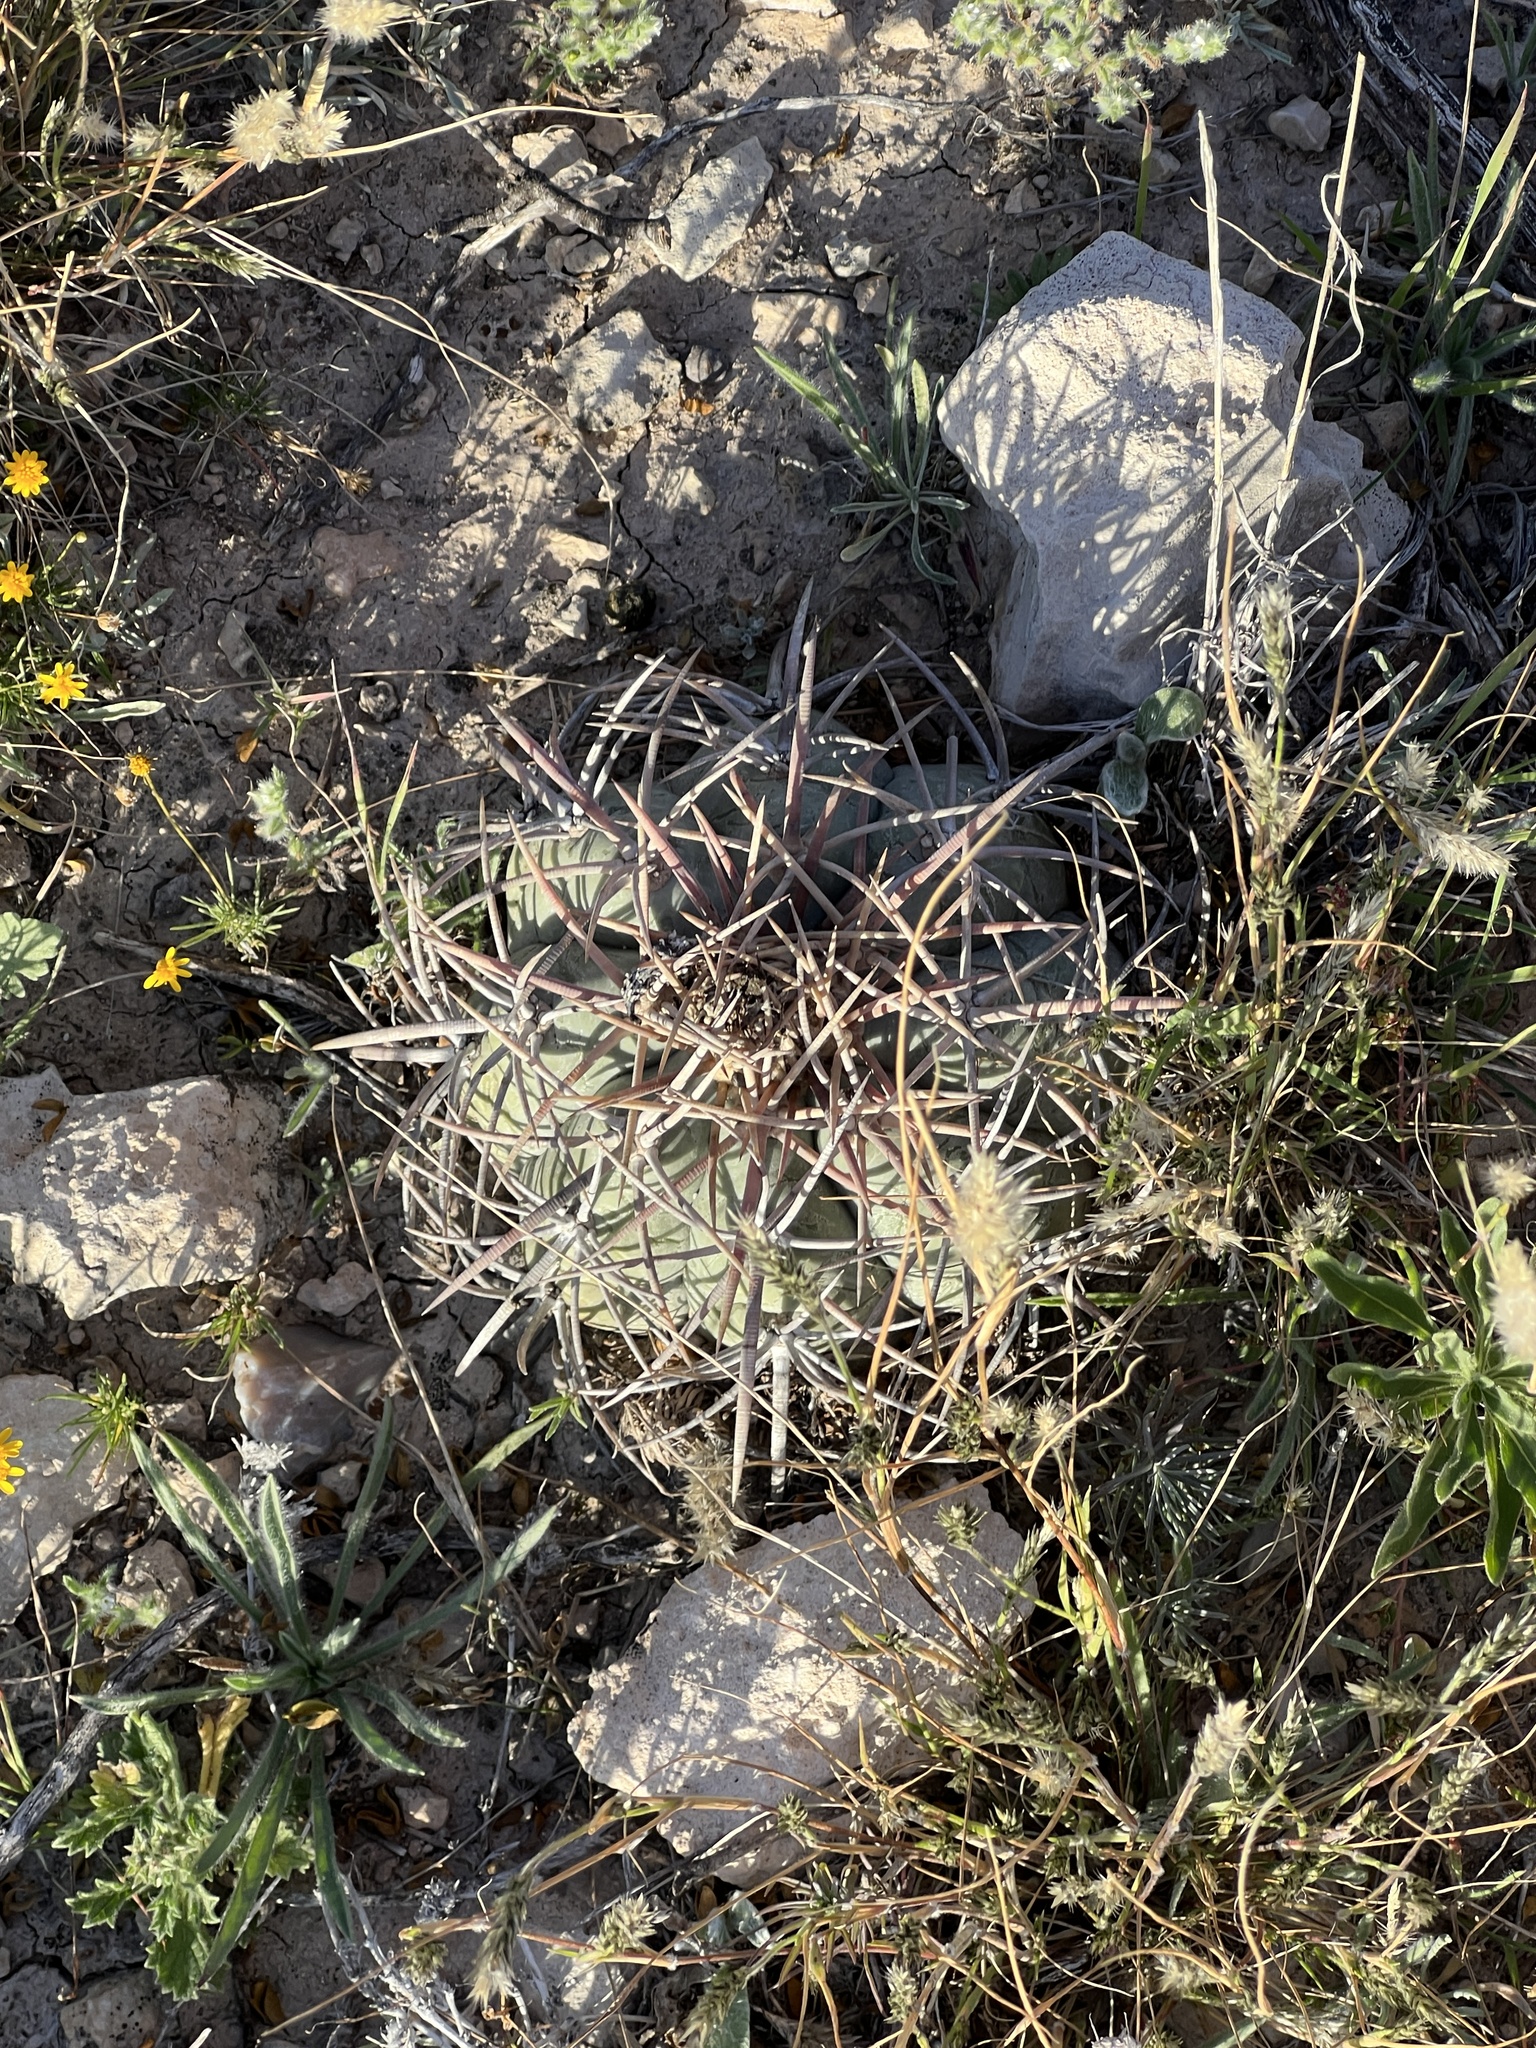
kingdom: Plantae
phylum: Tracheophyta
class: Magnoliopsida
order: Caryophyllales
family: Cactaceae
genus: Echinocactus
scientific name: Echinocactus horizonthalonius
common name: Devilshead
